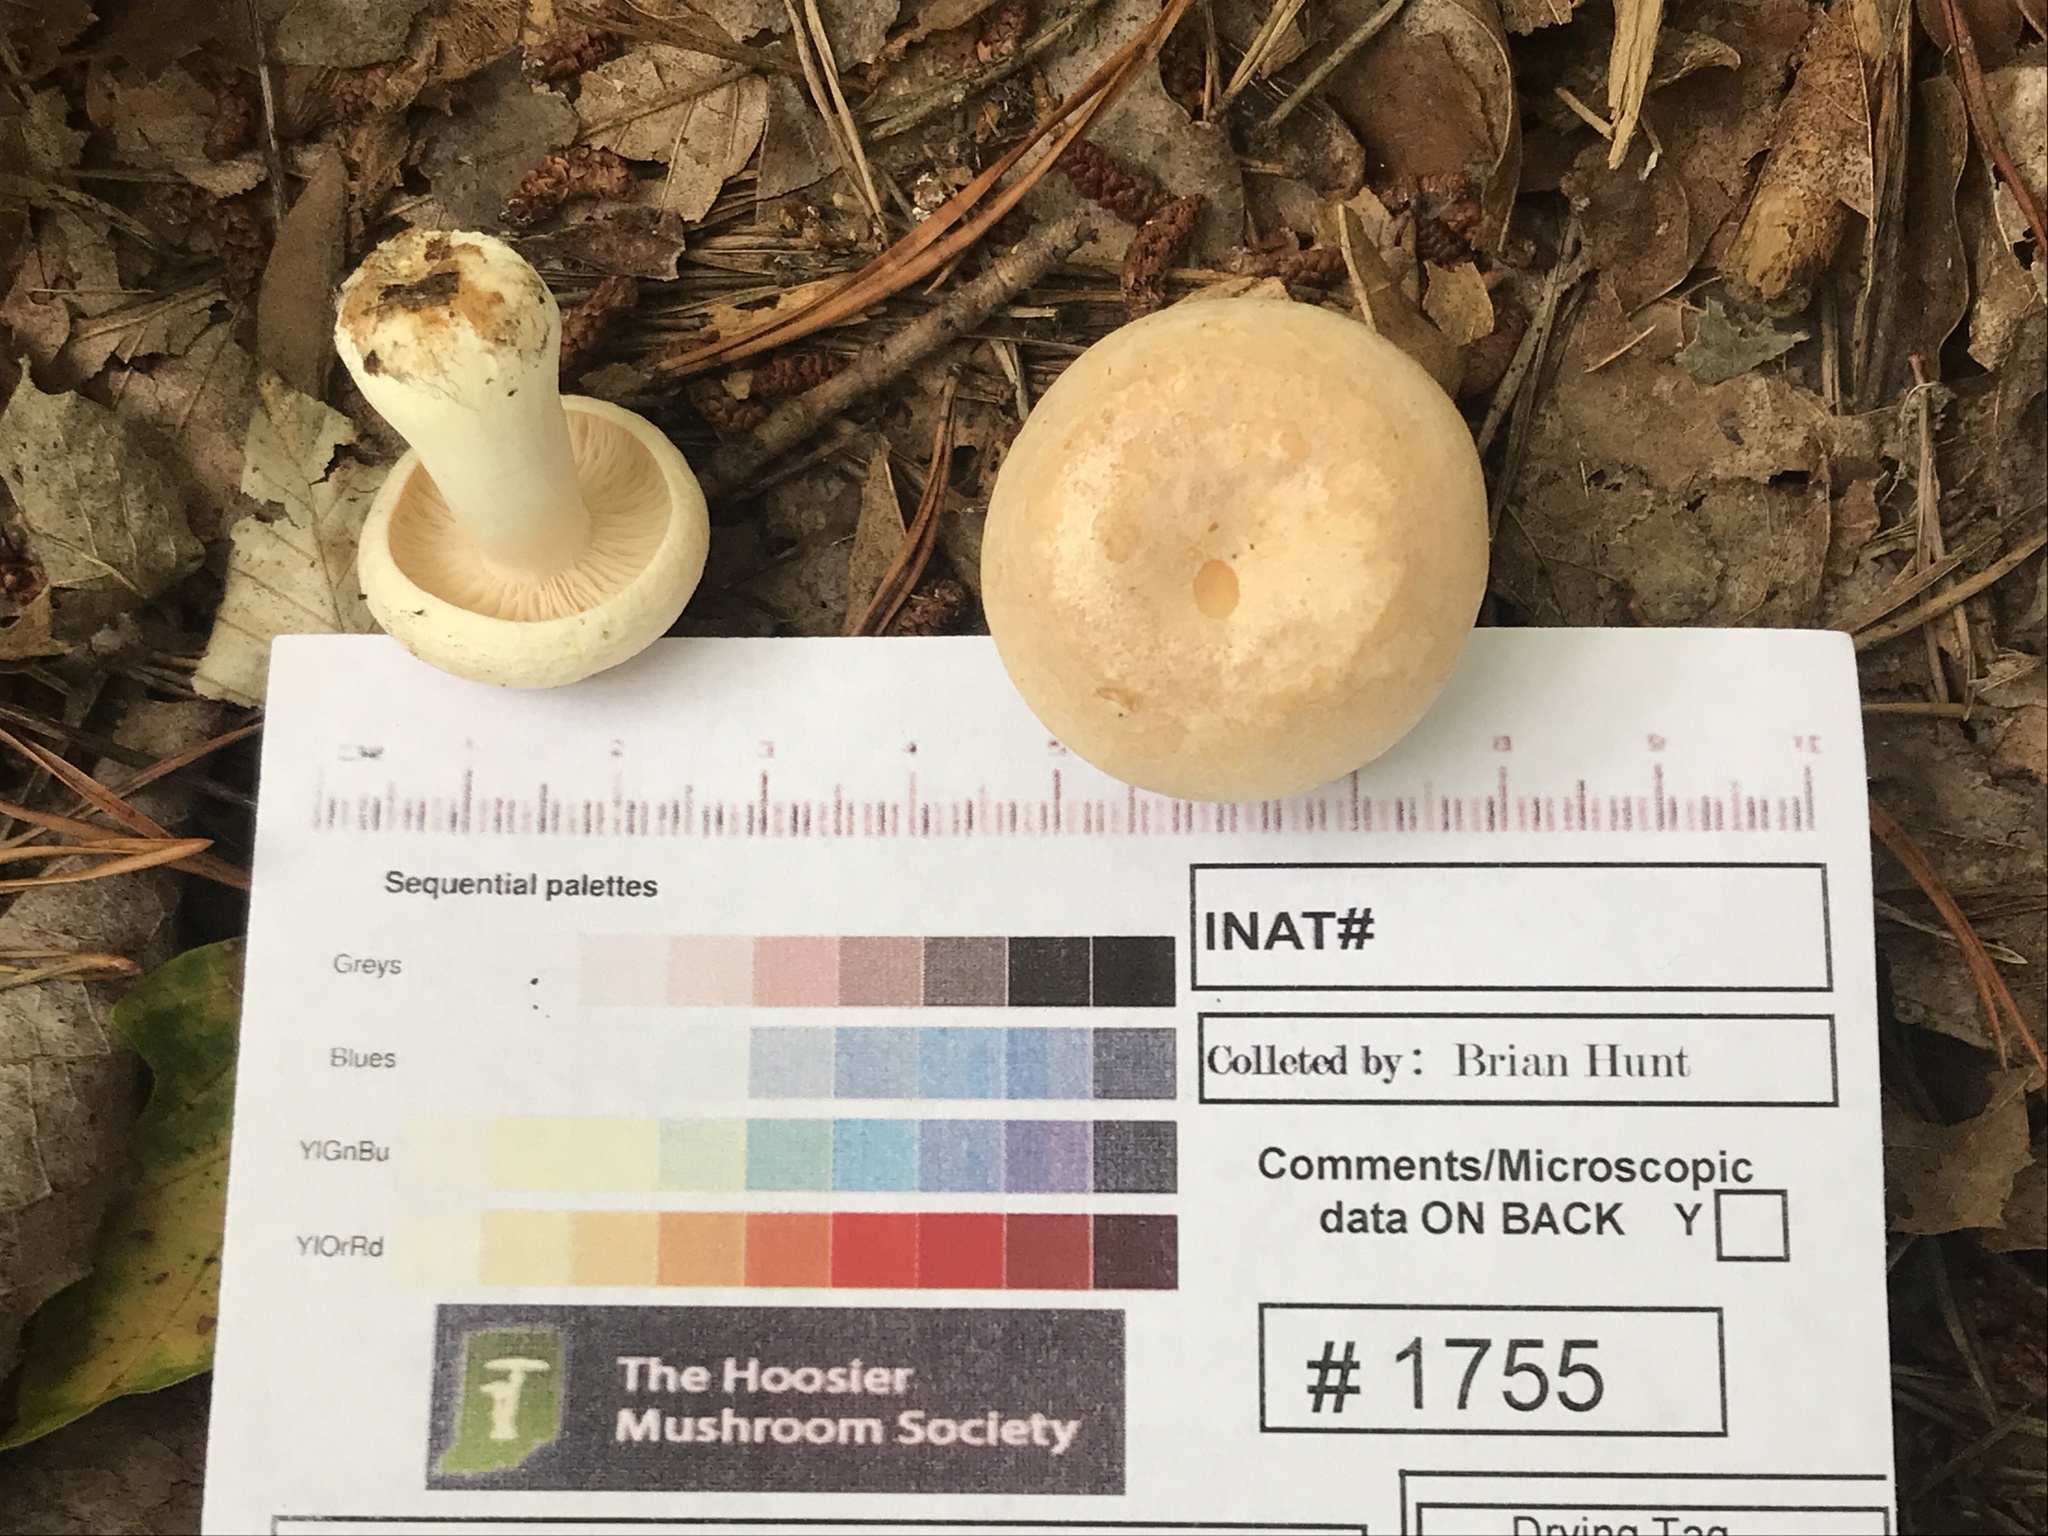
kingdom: Fungi
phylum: Basidiomycota
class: Agaricomycetes
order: Russulales
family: Russulaceae
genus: Lactarius
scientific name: Lactarius chrysorrheus
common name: Yellowdrop milkcap
